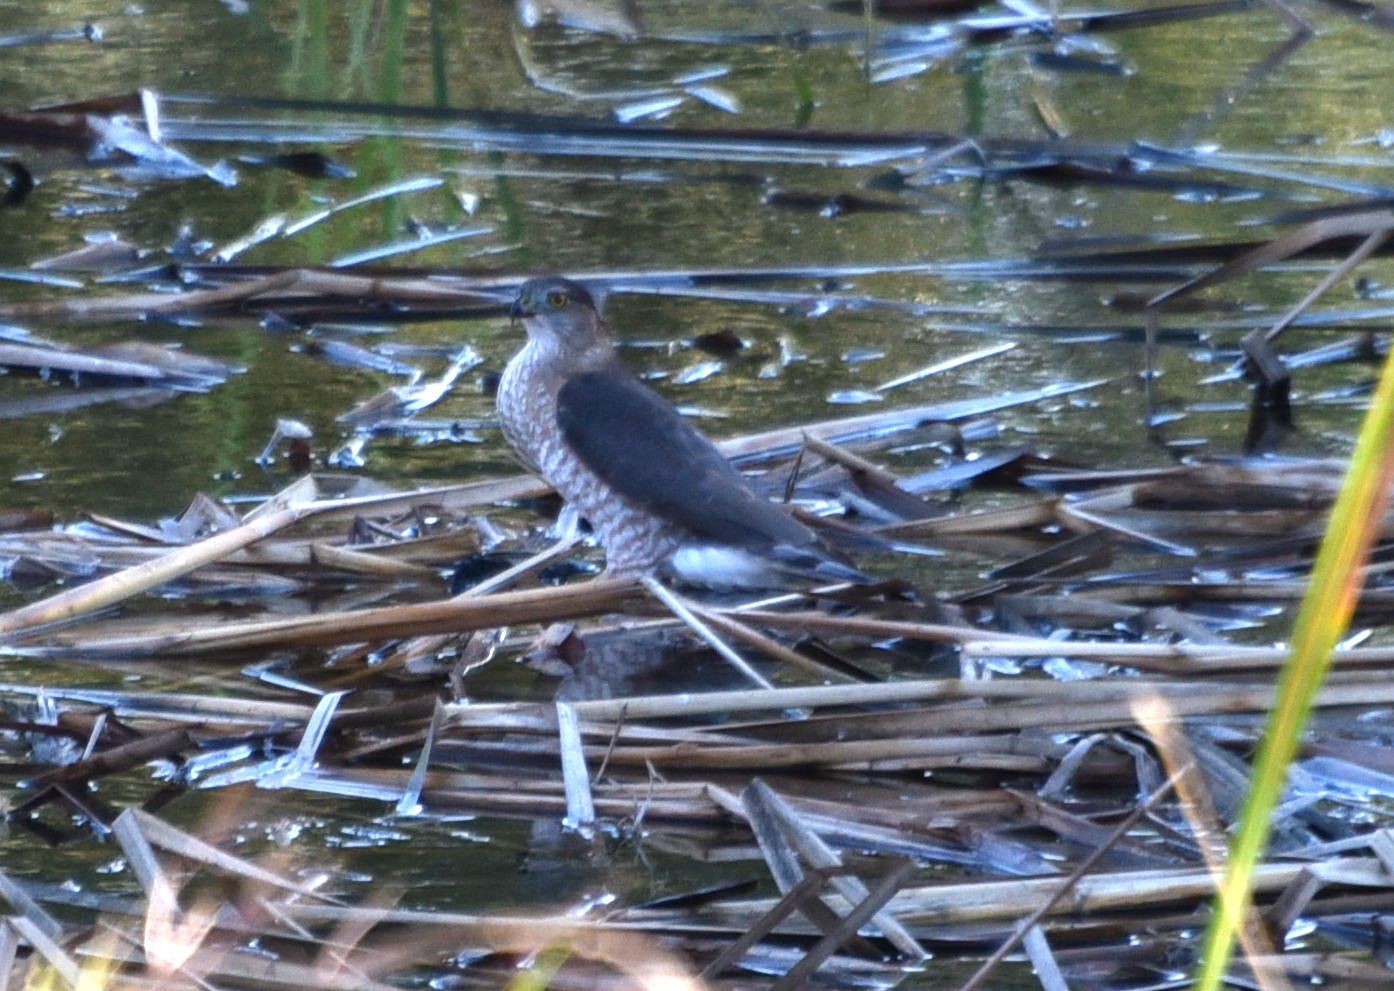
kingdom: Animalia
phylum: Chordata
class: Aves
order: Accipitriformes
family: Accipitridae
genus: Accipiter
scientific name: Accipiter cooperii
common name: Cooper's hawk
